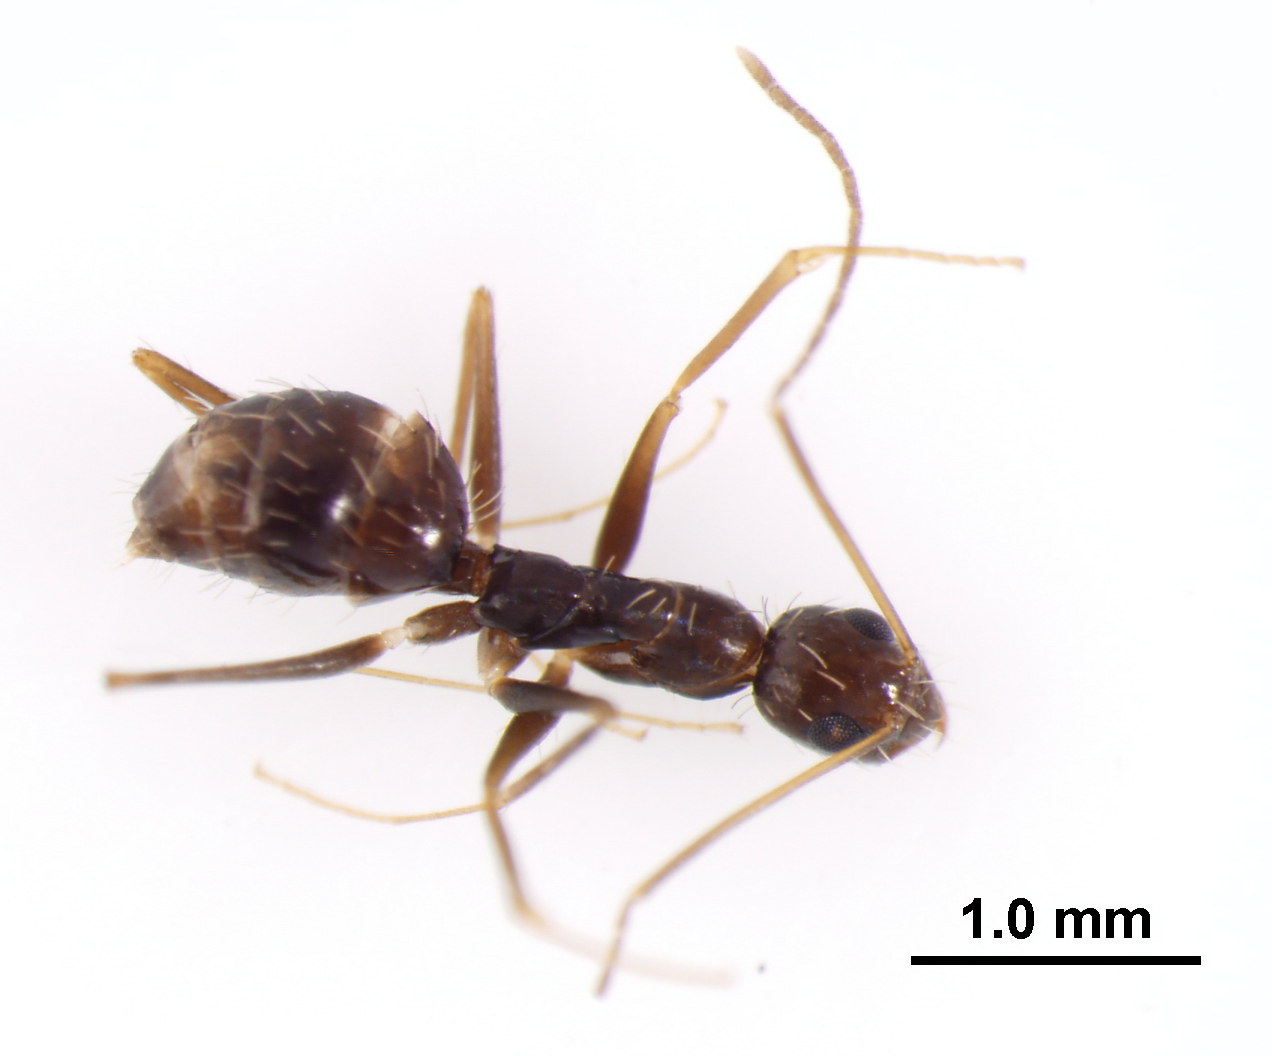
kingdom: Animalia
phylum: Arthropoda
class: Insecta
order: Hymenoptera
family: Formicidae
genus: Paratrechina
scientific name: Paratrechina longicornis
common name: Longhorned crazy ant
